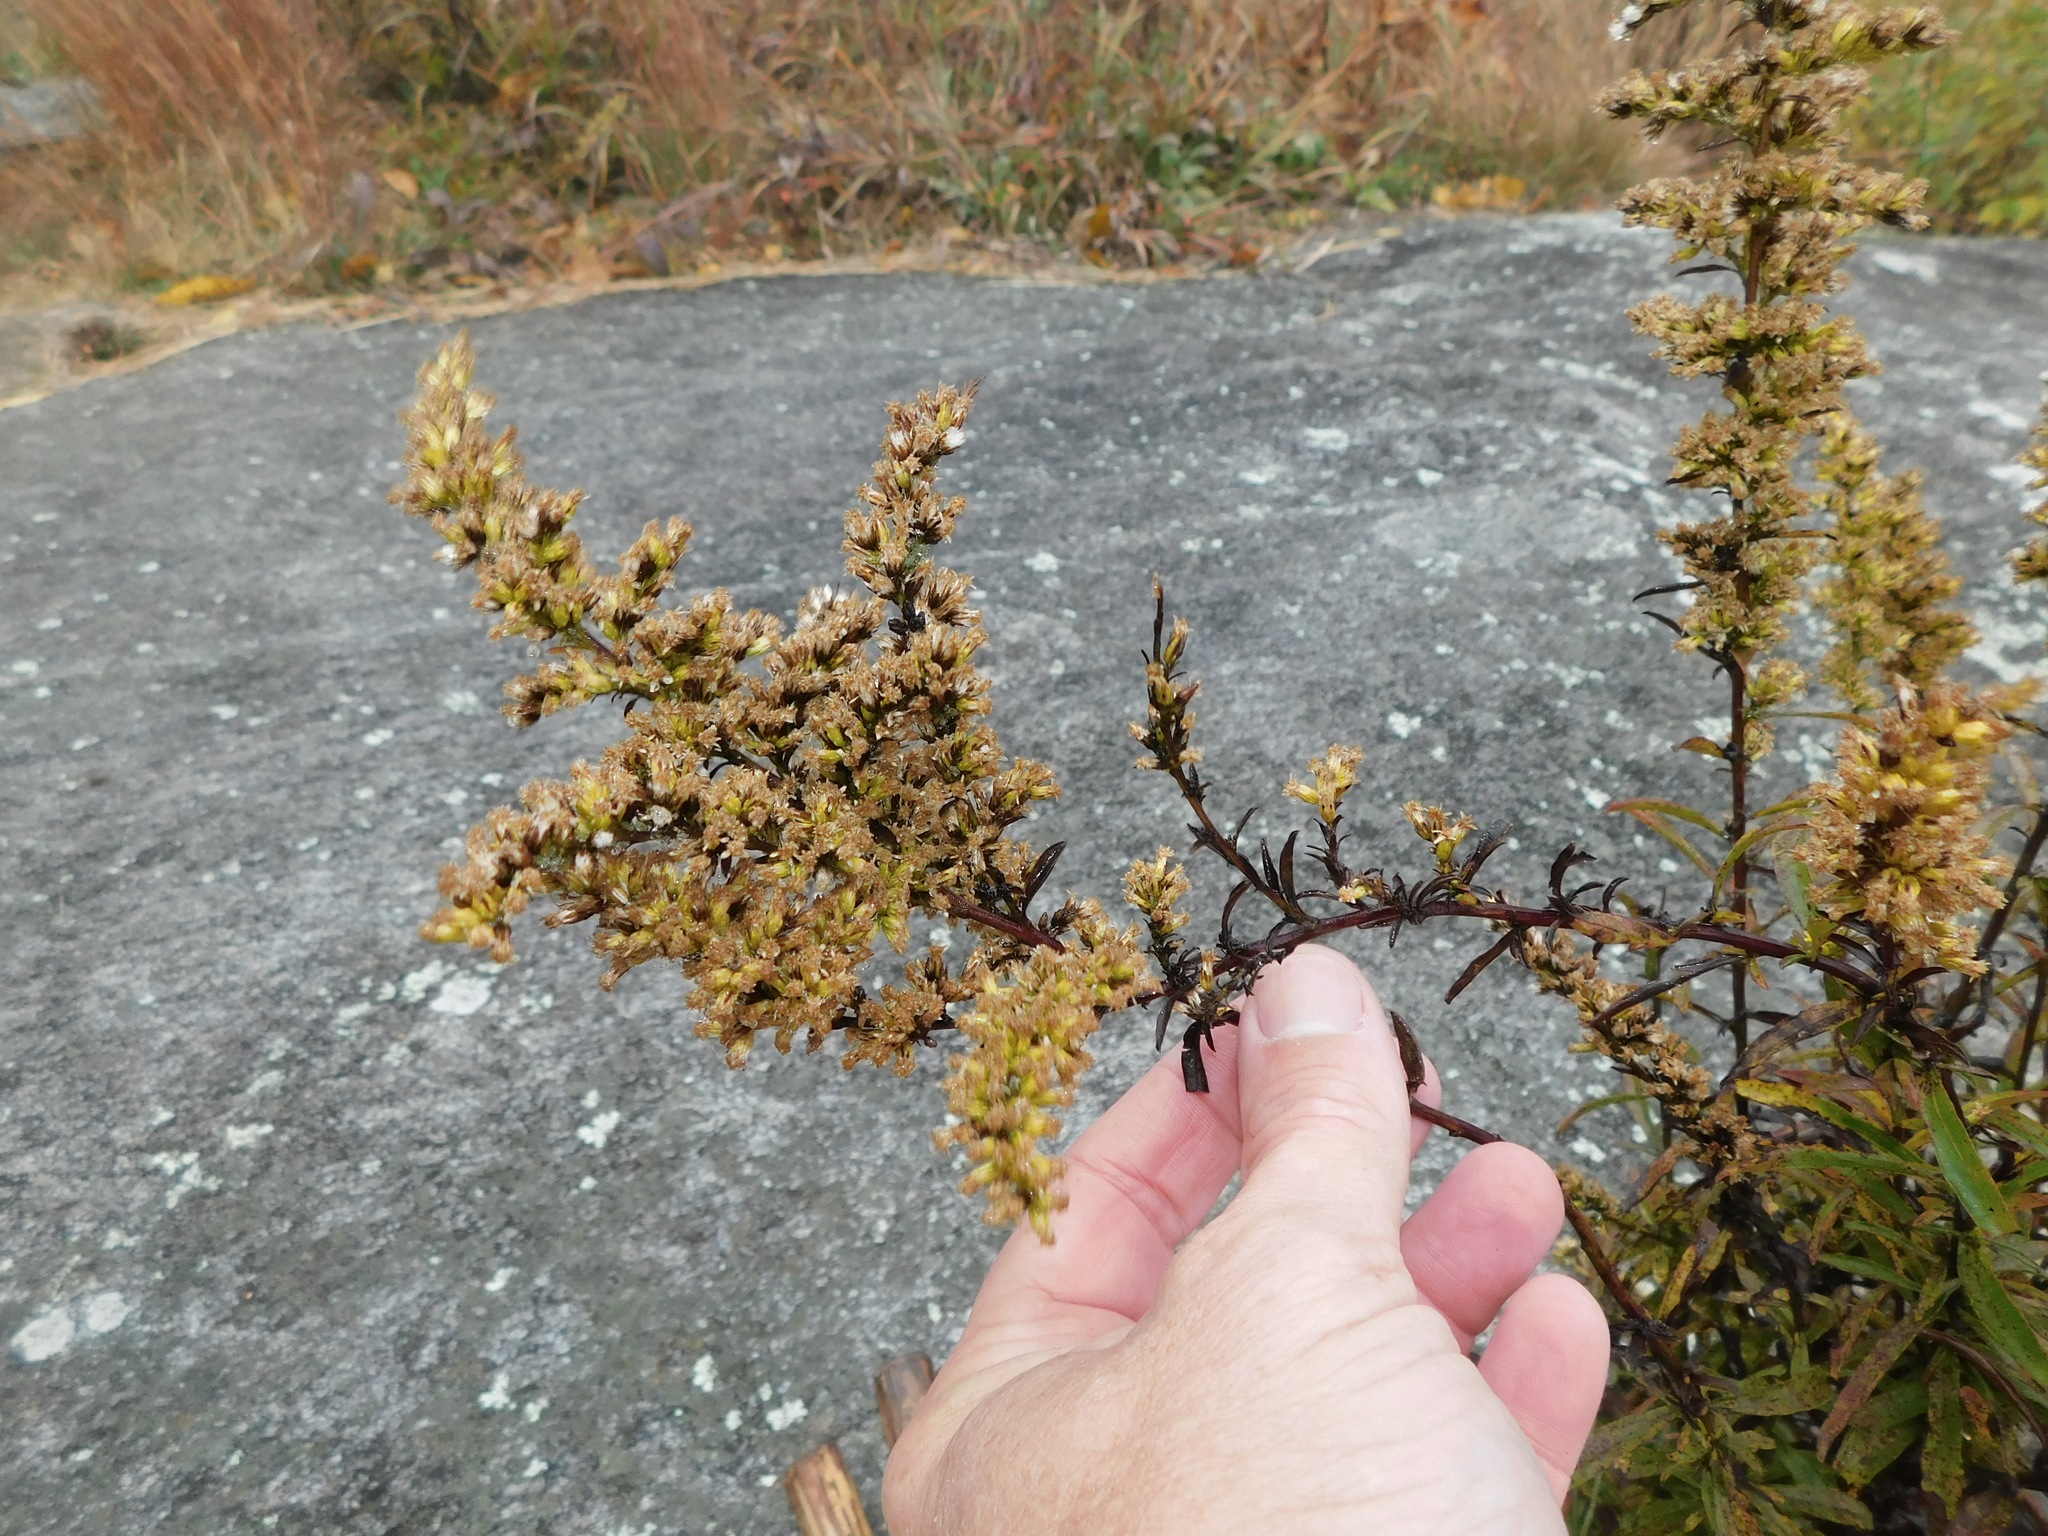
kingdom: Plantae
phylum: Tracheophyta
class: Magnoliopsida
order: Asterales
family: Asteraceae
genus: Solidago
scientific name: Solidago nemoralis
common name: Grey goldenrod
